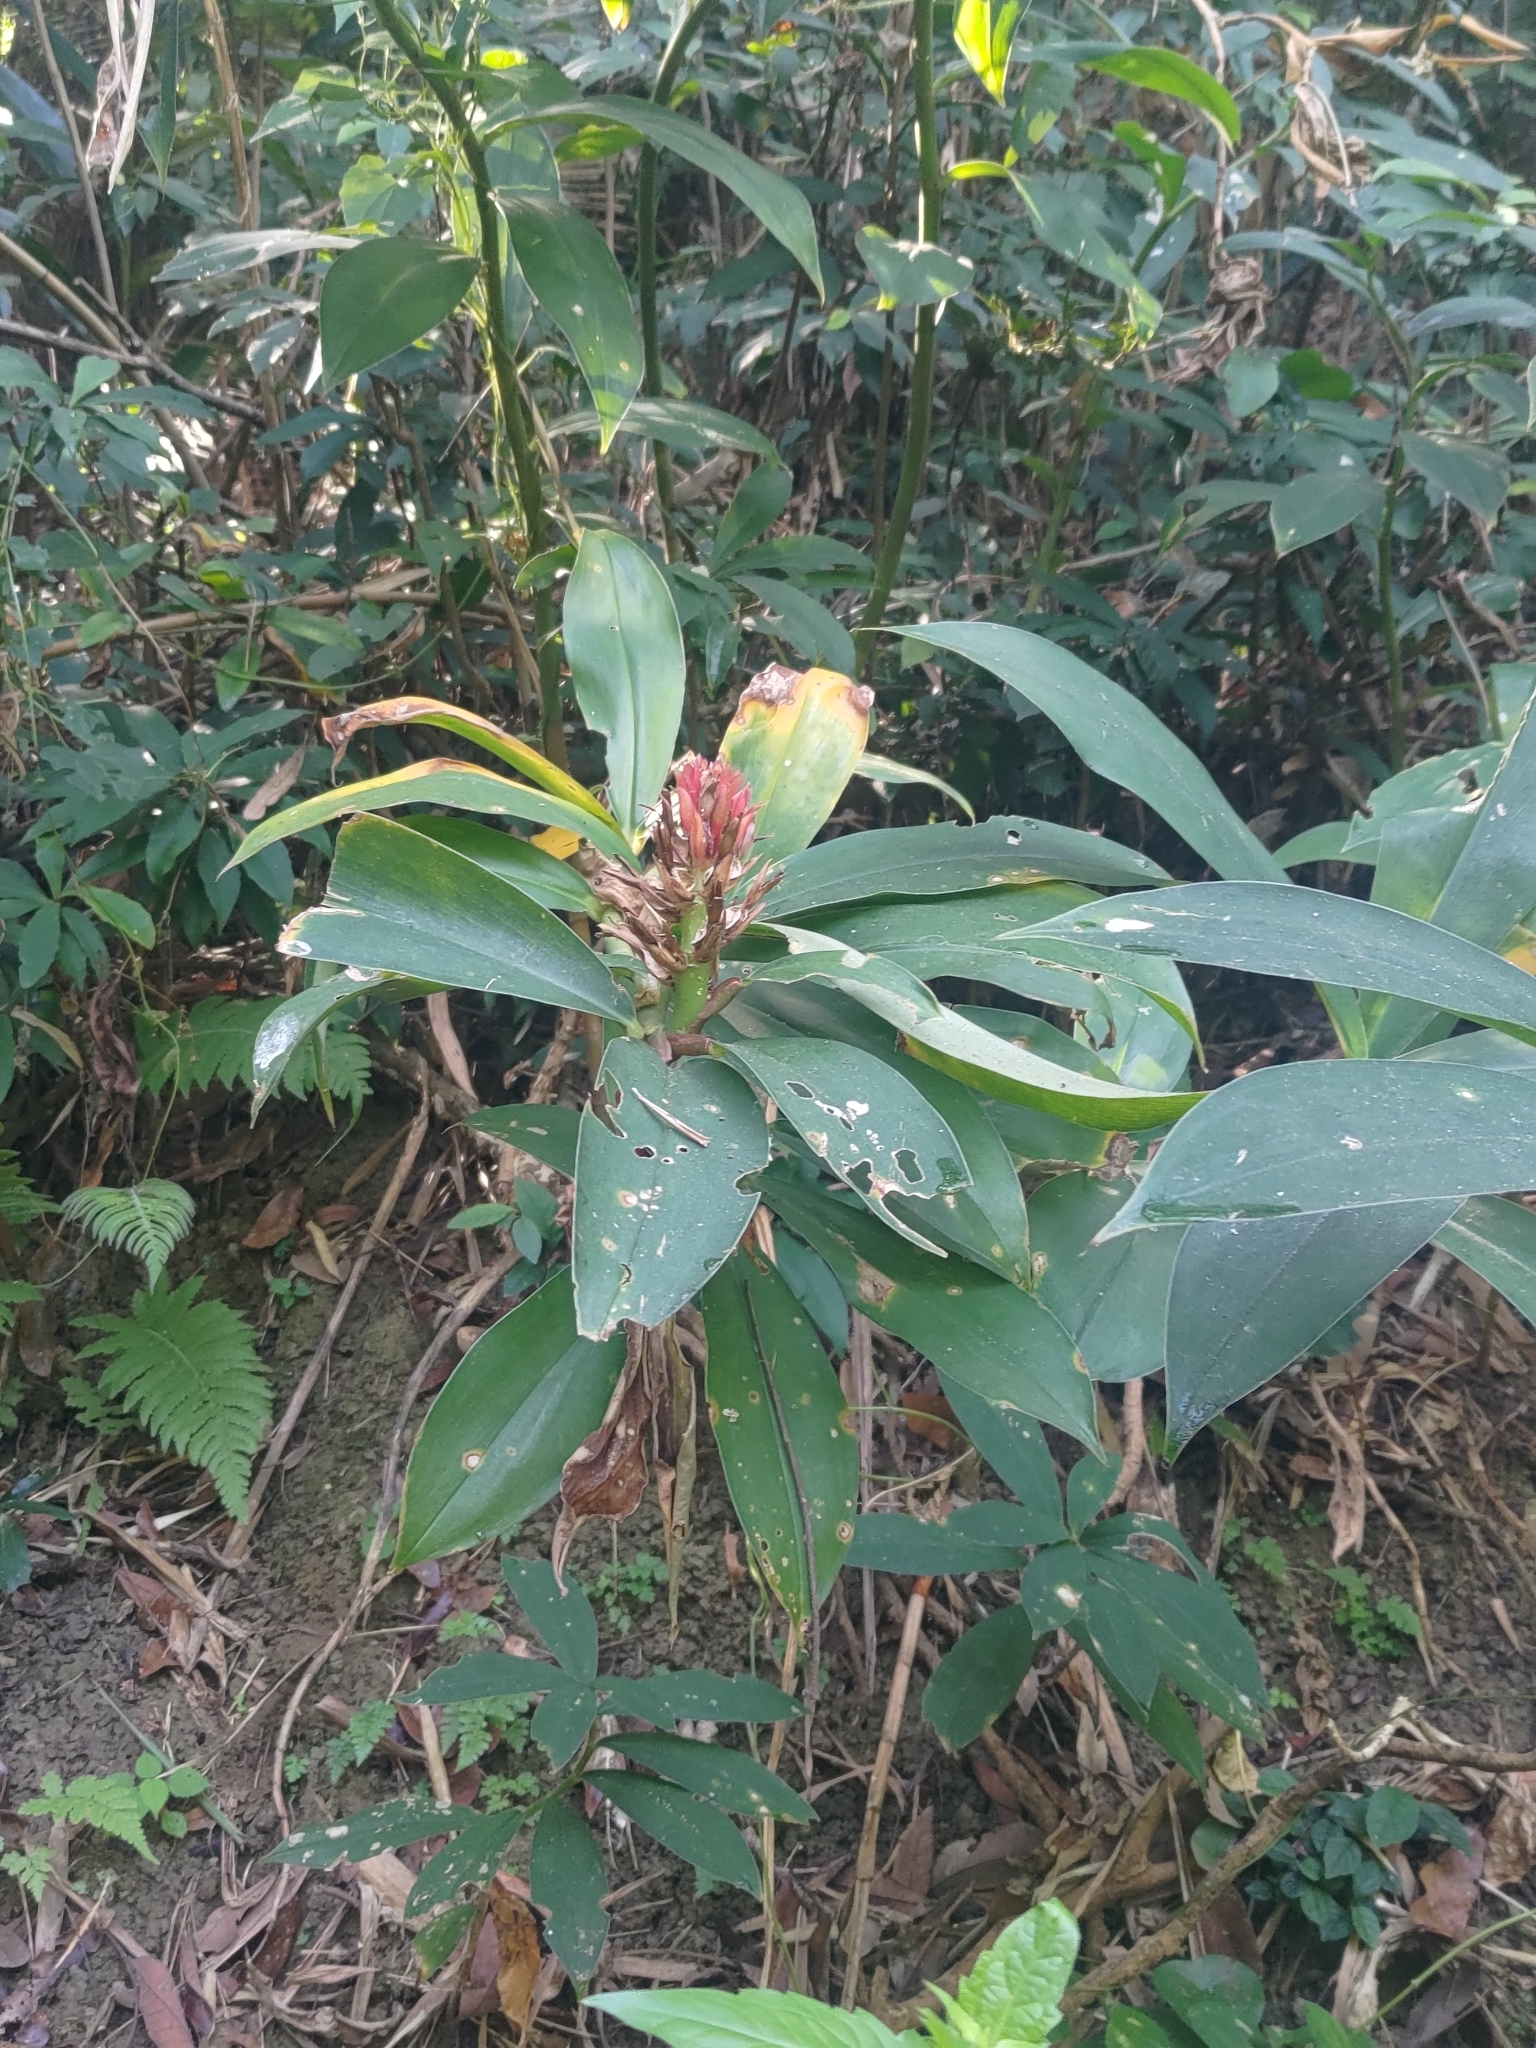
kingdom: Plantae
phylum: Tracheophyta
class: Liliopsida
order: Zingiberales
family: Costaceae
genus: Hellenia
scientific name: Hellenia speciosa
